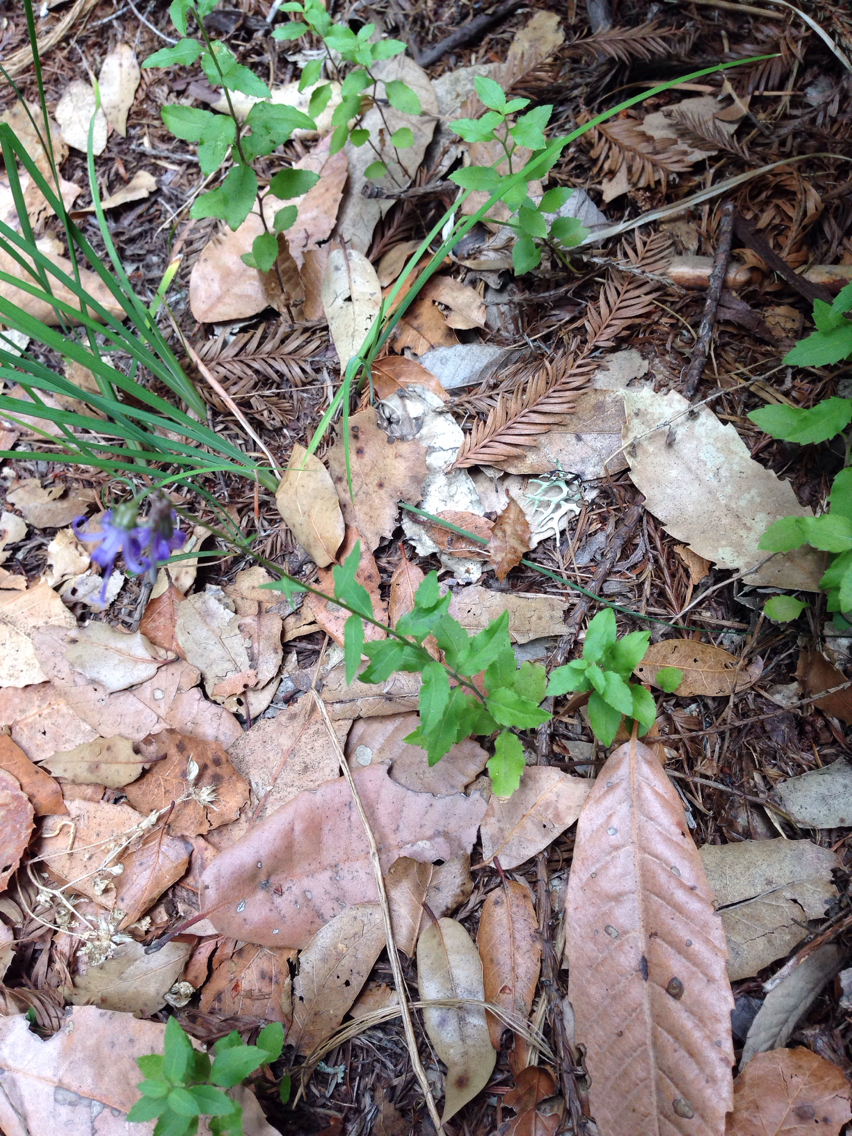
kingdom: Plantae
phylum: Tracheophyta
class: Magnoliopsida
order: Asterales
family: Campanulaceae
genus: Smithiastrum
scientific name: Smithiastrum prenanthoides
